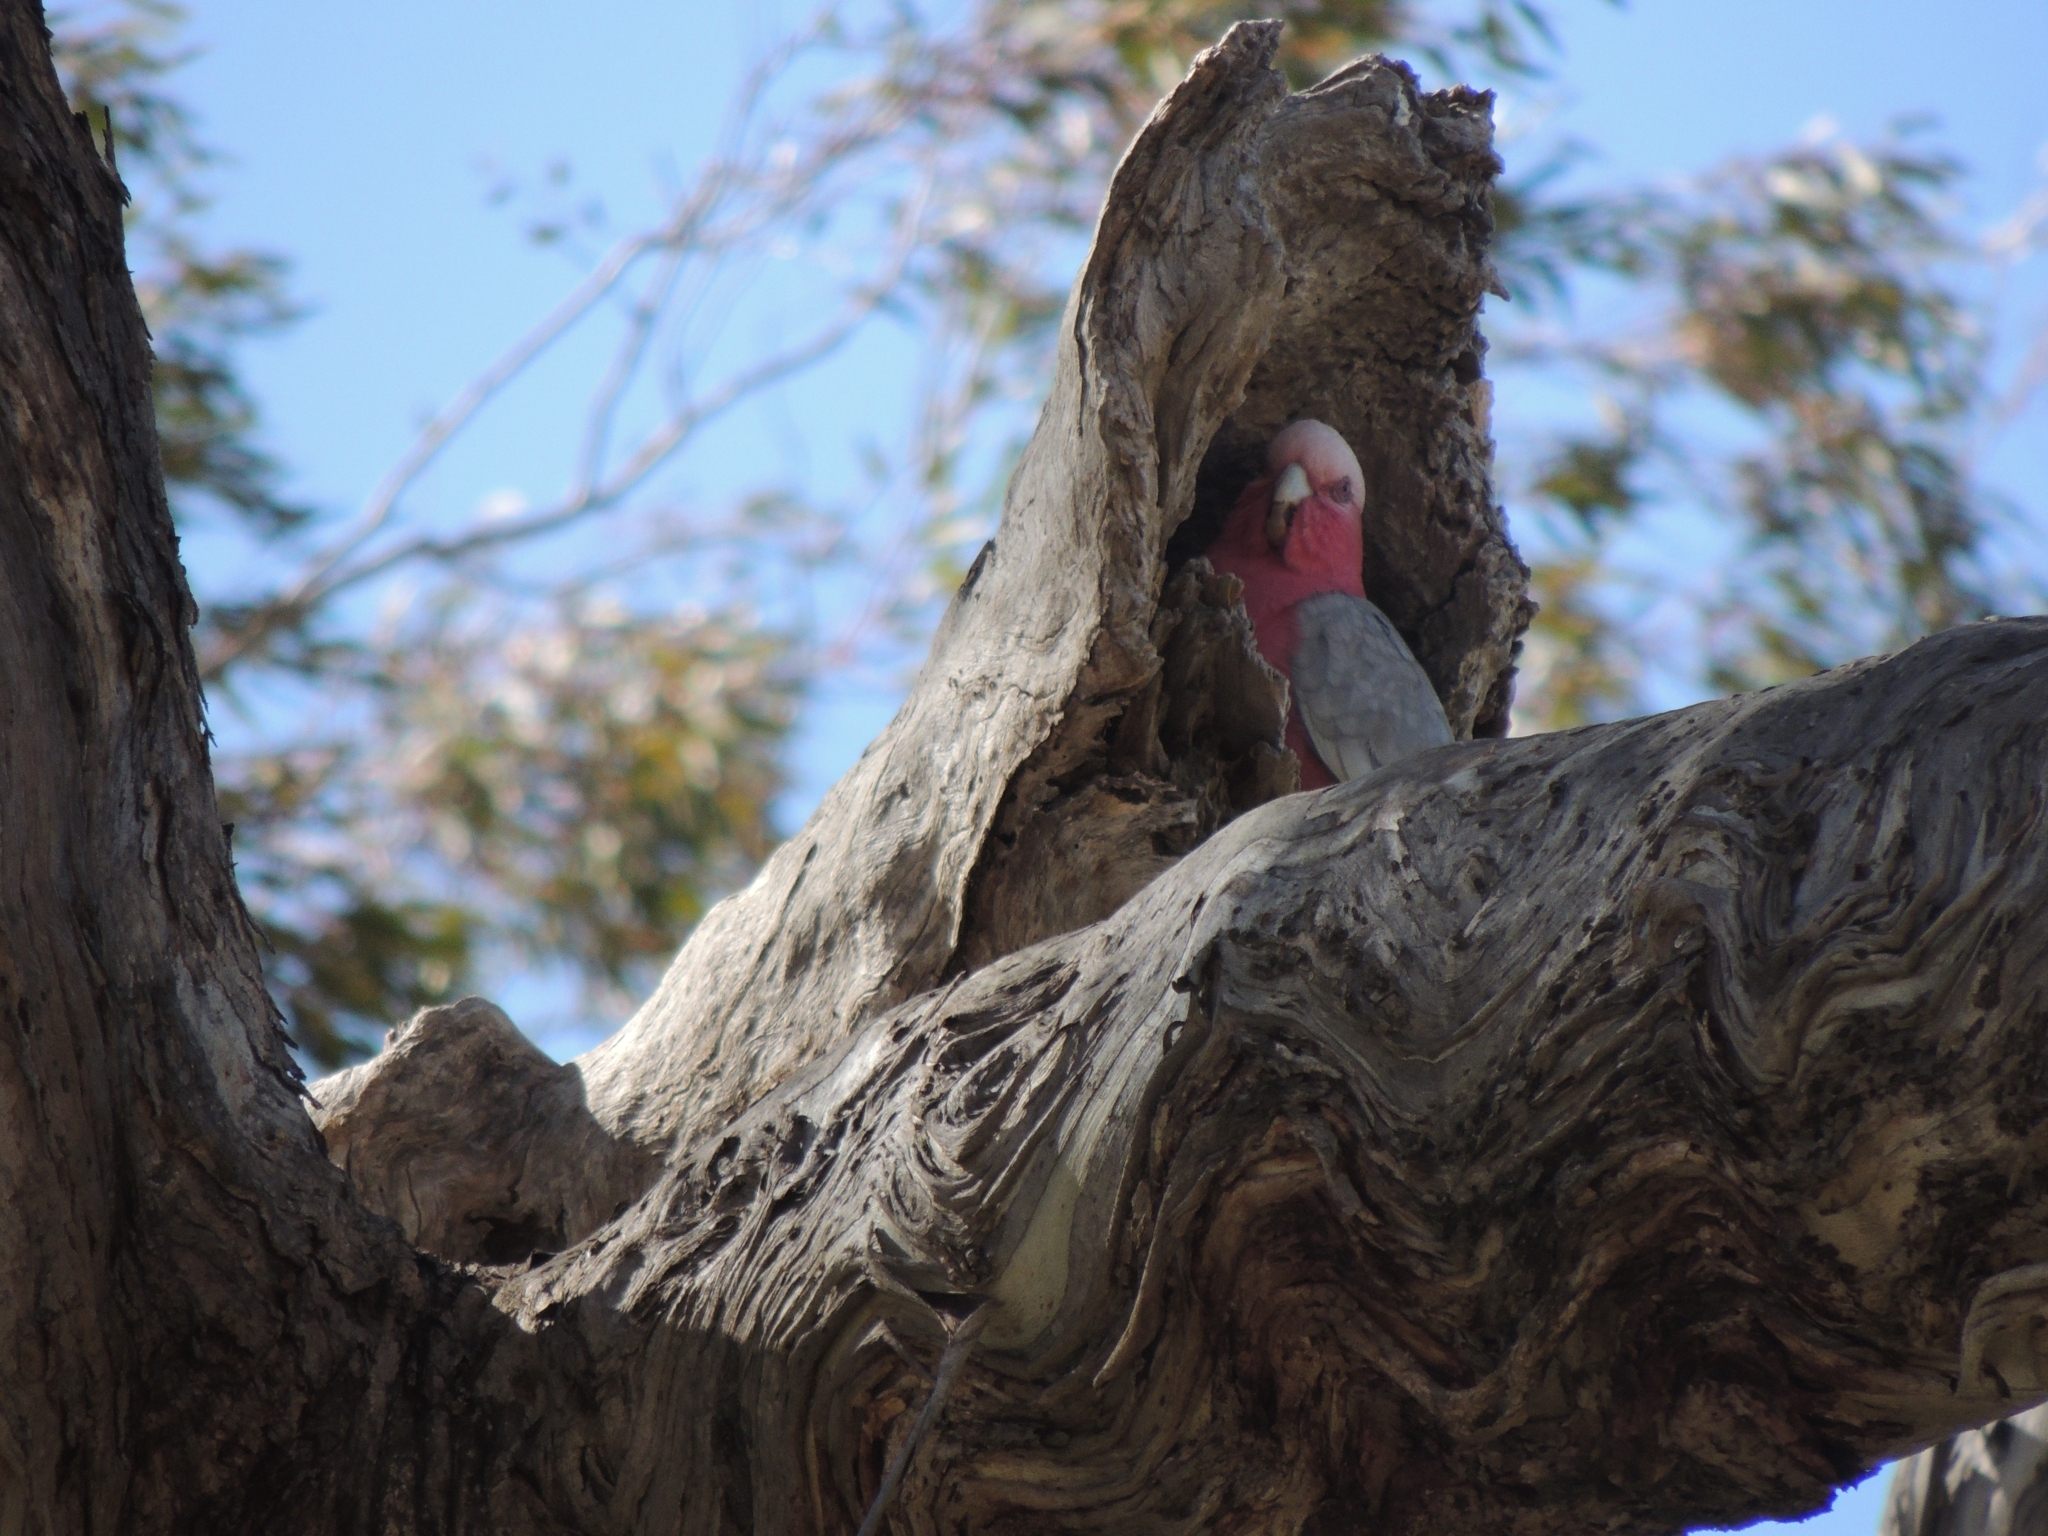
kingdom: Animalia
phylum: Chordata
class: Aves
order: Psittaciformes
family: Psittacidae
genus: Eolophus
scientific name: Eolophus roseicapilla
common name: Galah
